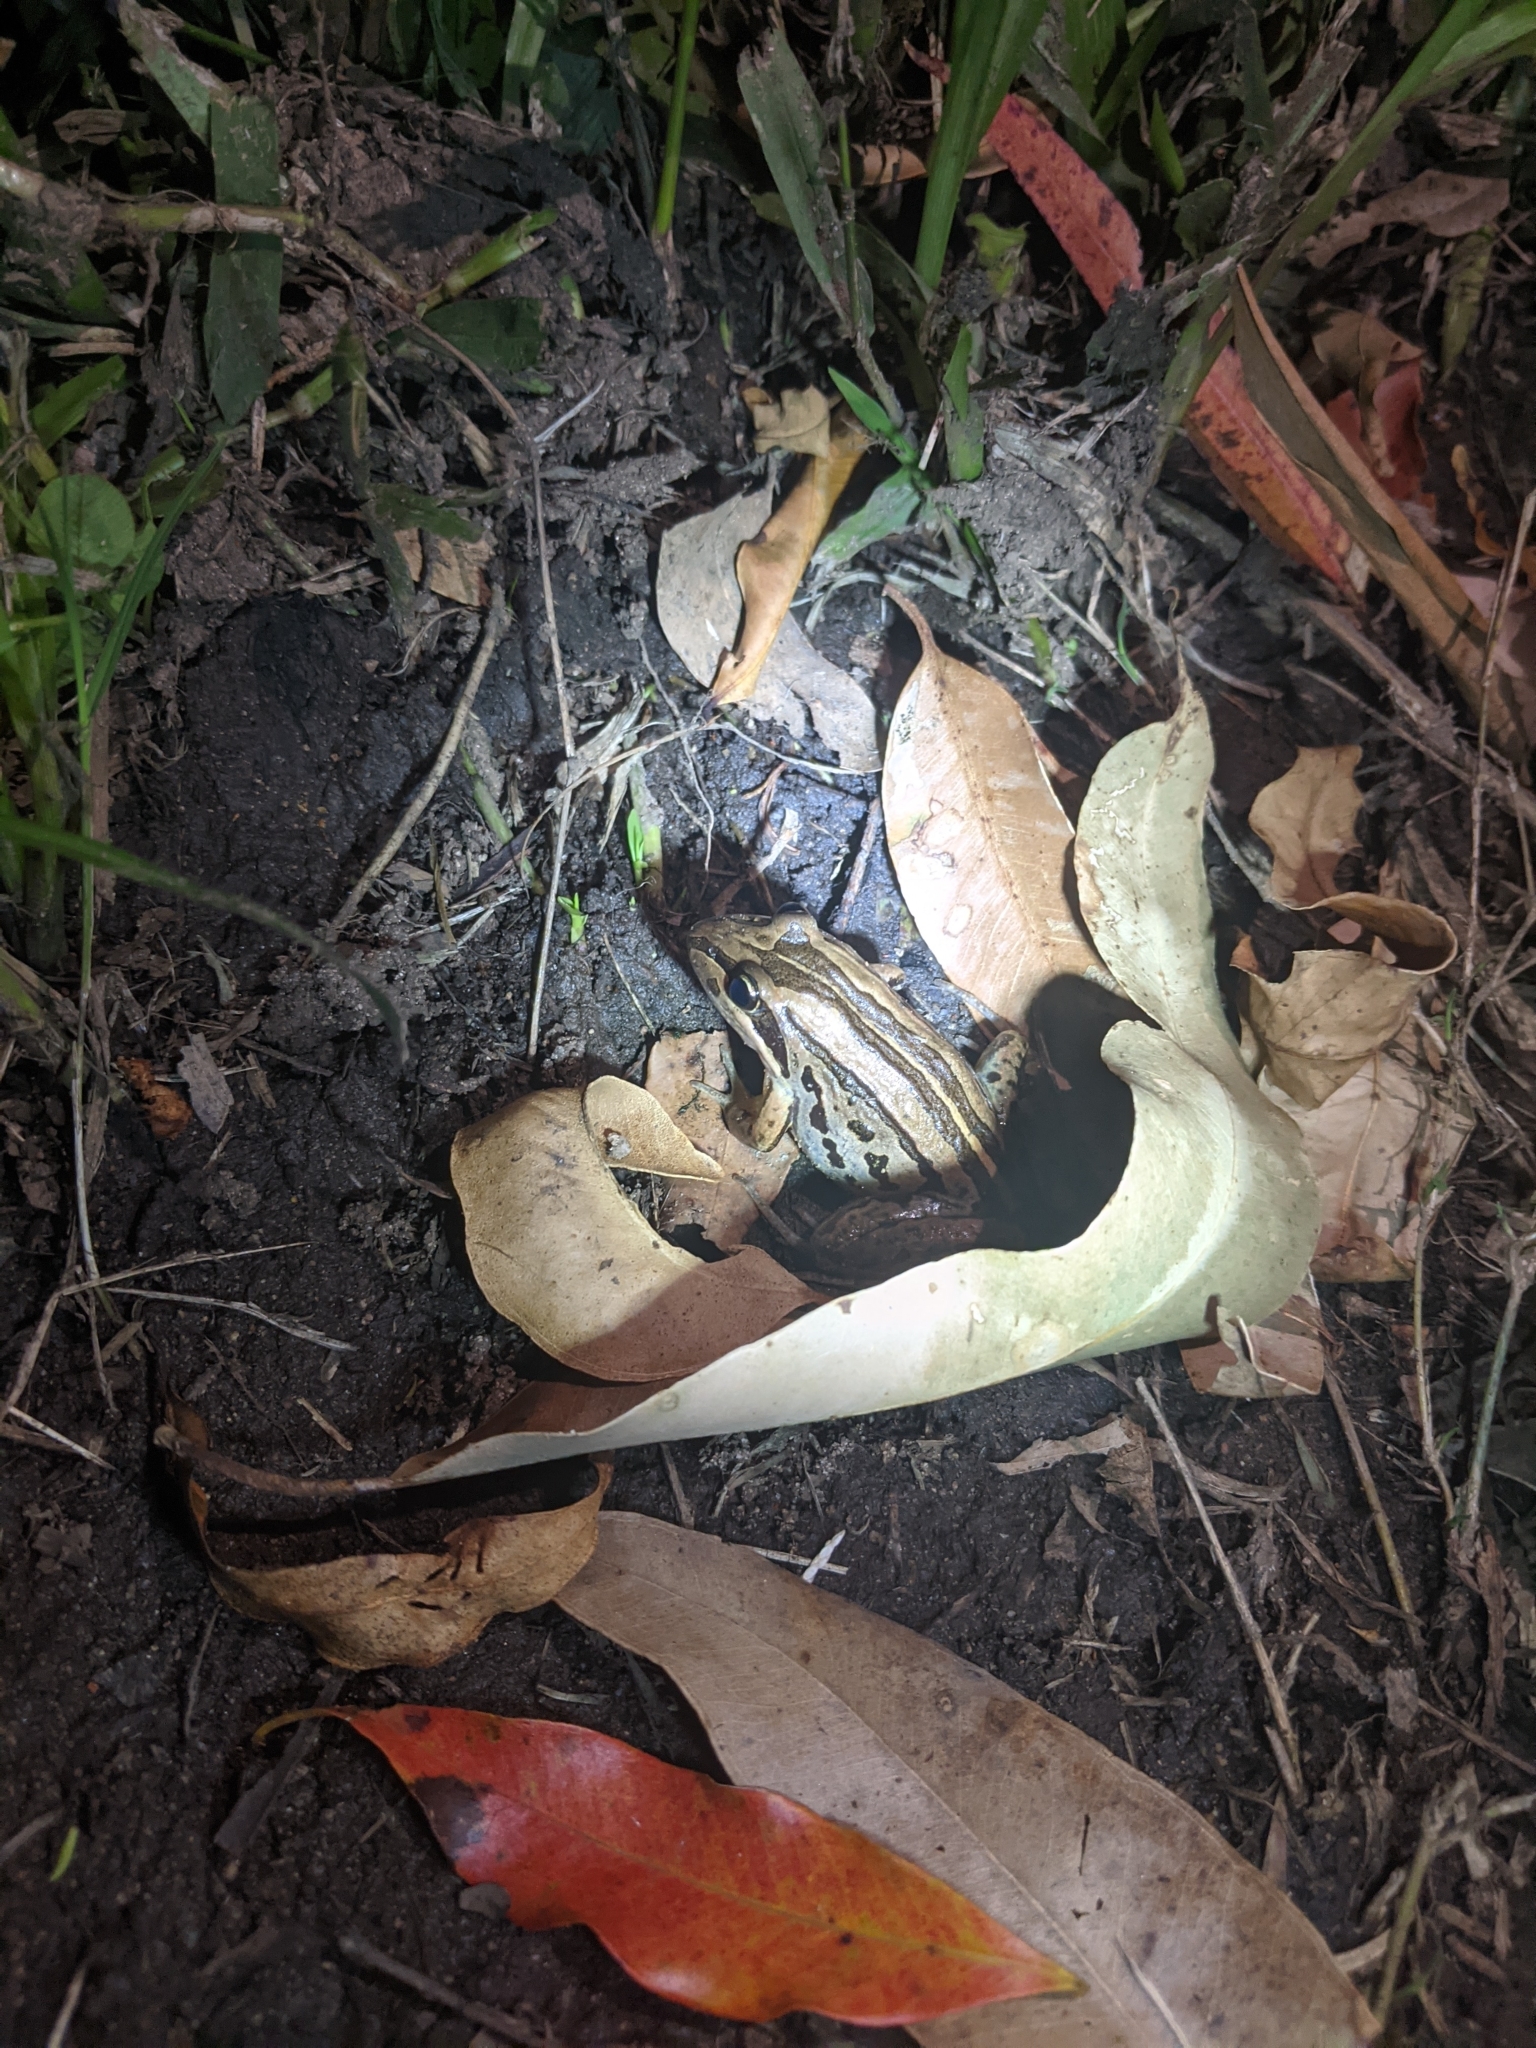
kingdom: Animalia
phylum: Chordata
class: Amphibia
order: Anura
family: Limnodynastidae
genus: Limnodynastes
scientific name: Limnodynastes peronii
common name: Brown frog
